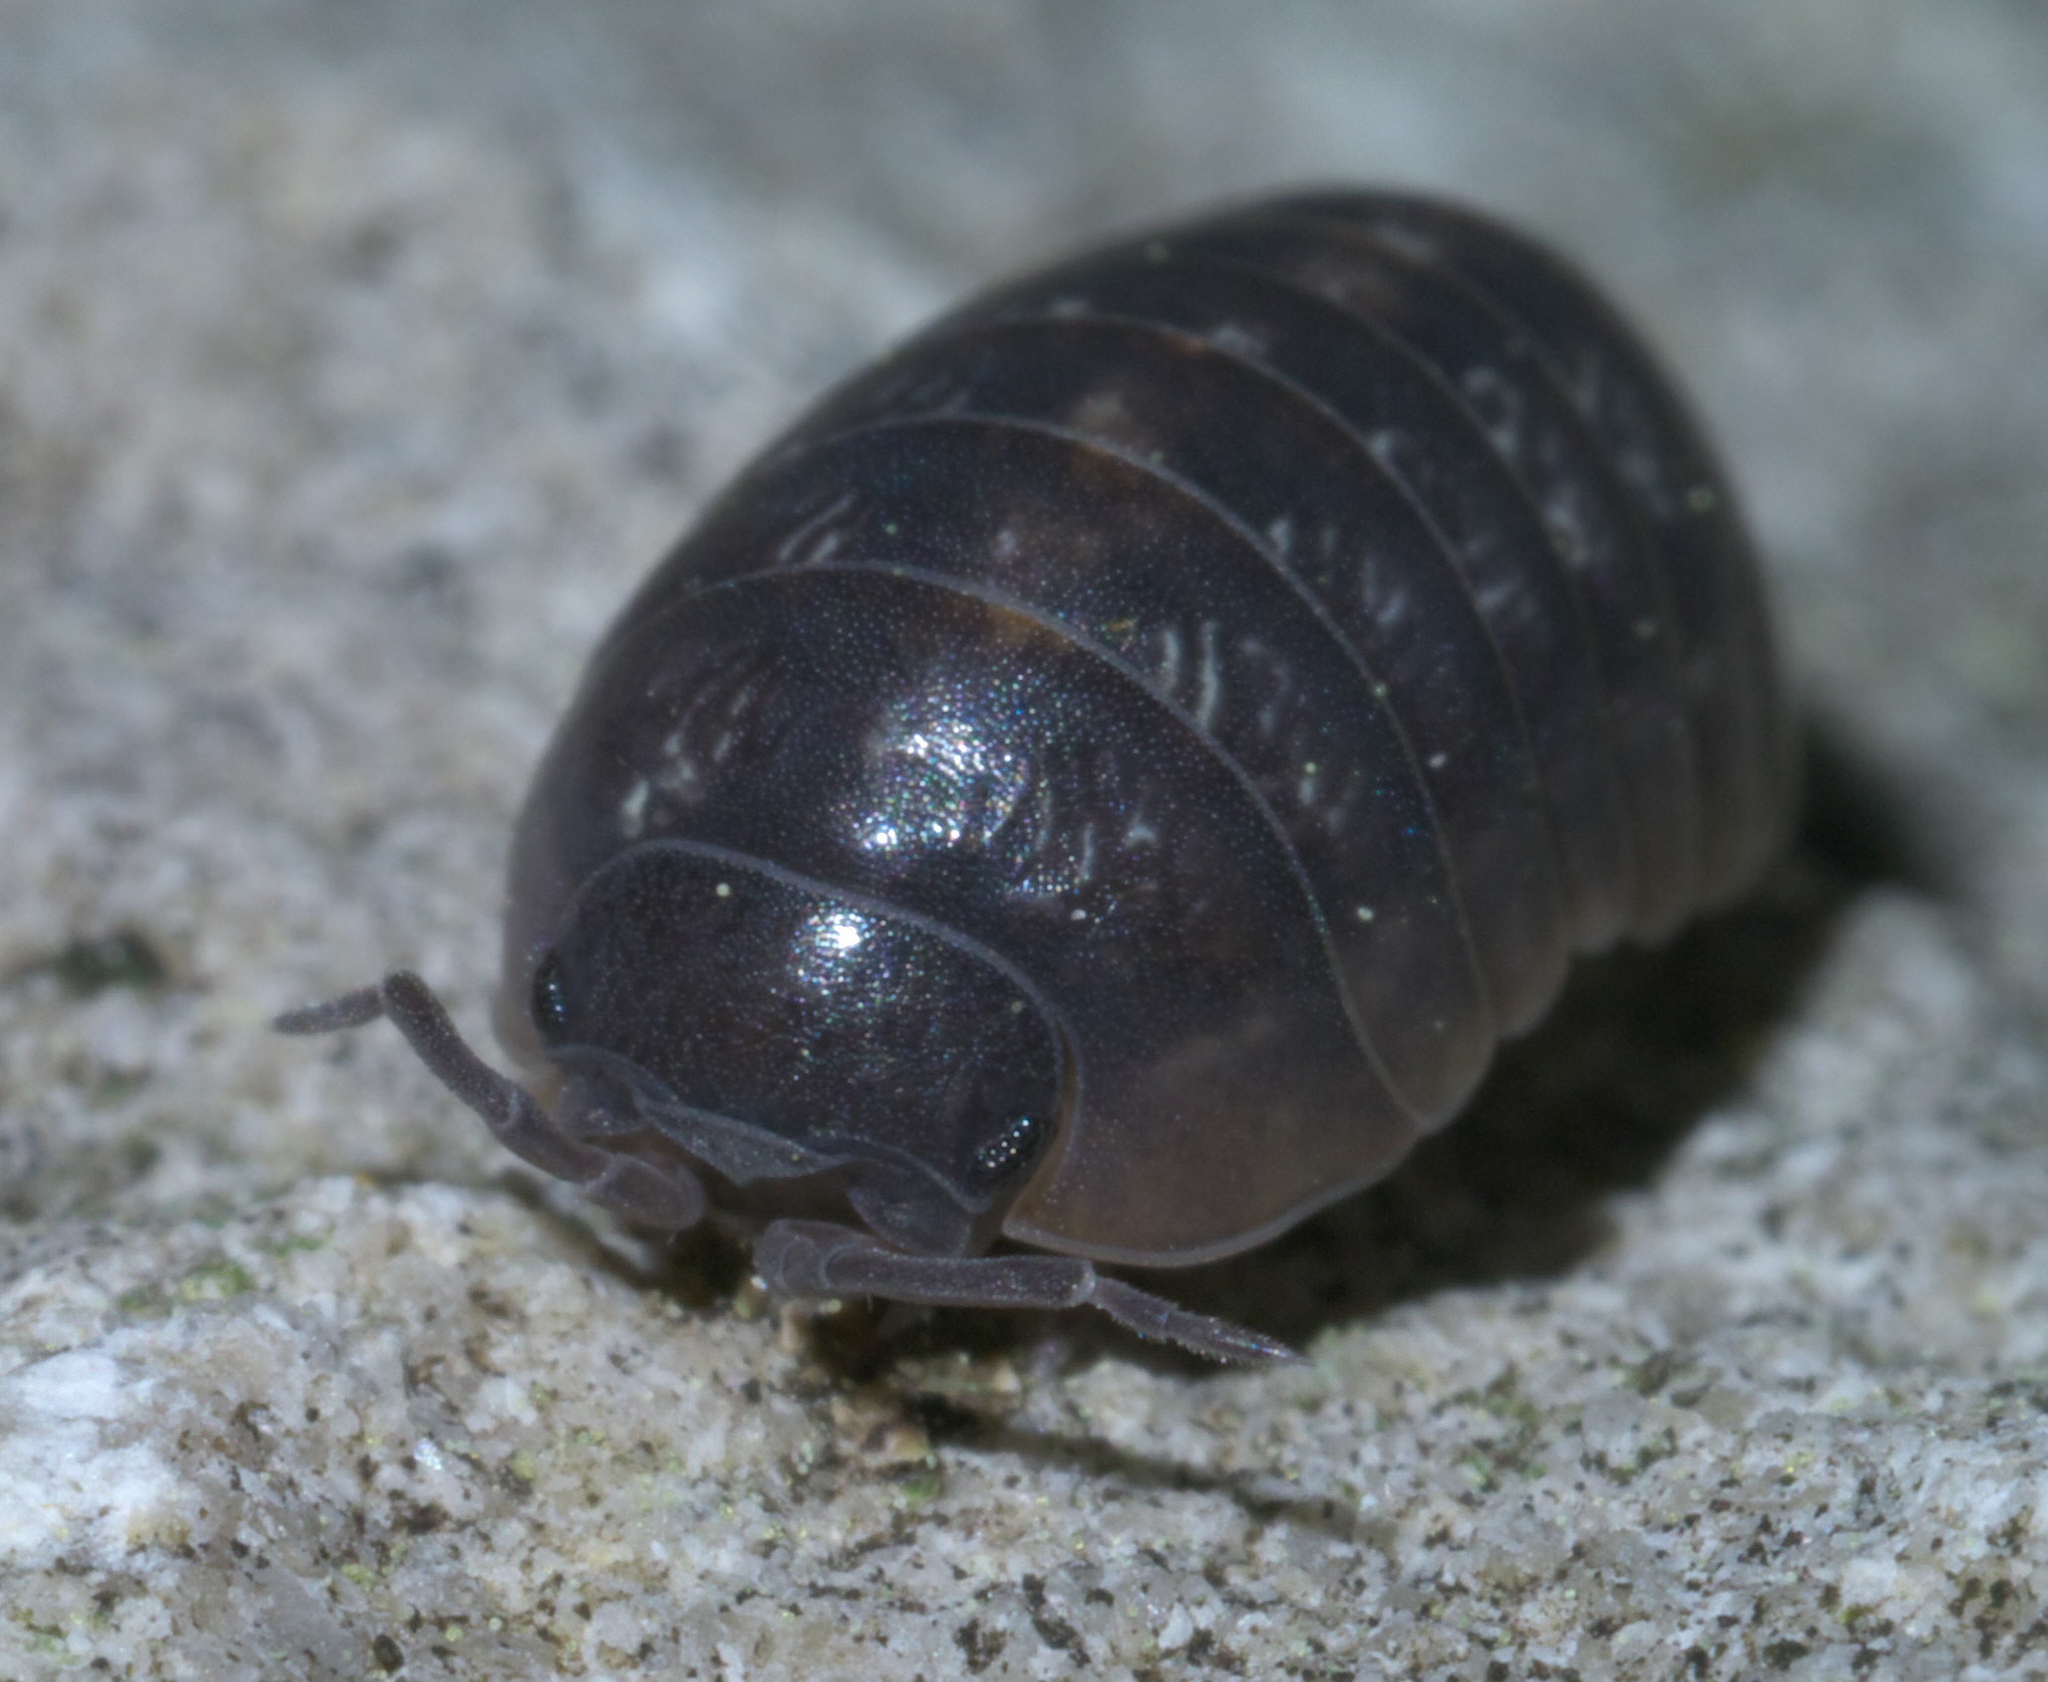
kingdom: Animalia
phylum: Arthropoda
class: Malacostraca
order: Isopoda
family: Armadillidiidae
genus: Armadillidium
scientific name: Armadillidium vulgare
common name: Common pill woodlouse
